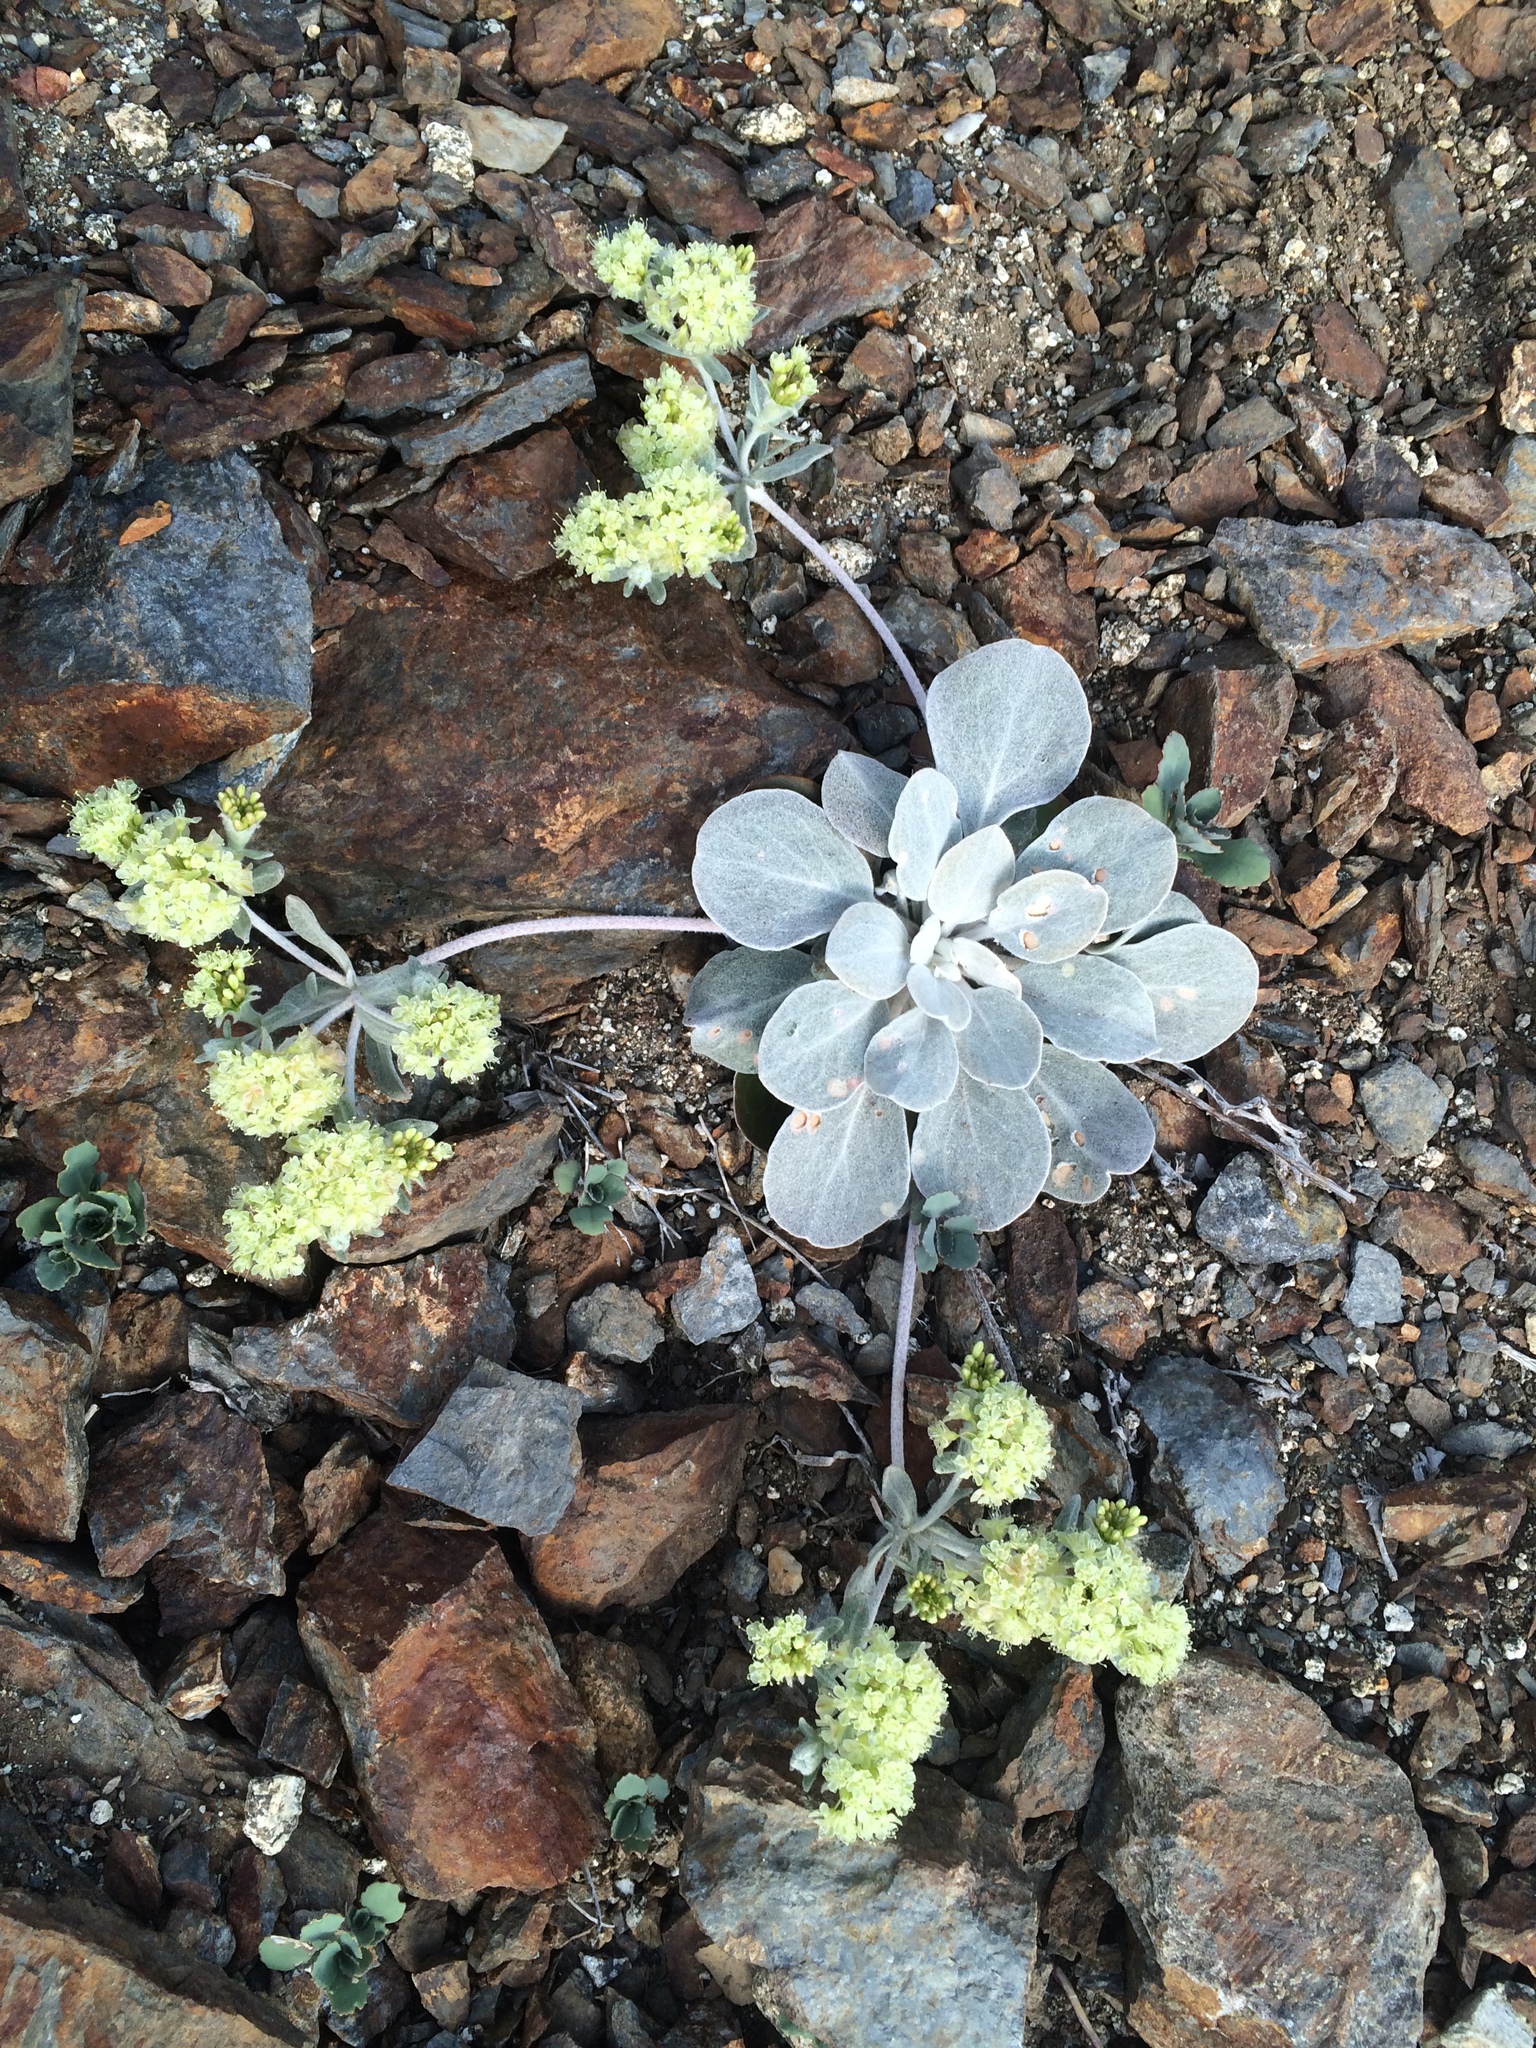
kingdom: Plantae
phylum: Tracheophyta
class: Magnoliopsida
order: Caryophyllales
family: Polygonaceae
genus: Eriogonum
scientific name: Eriogonum lobbii
